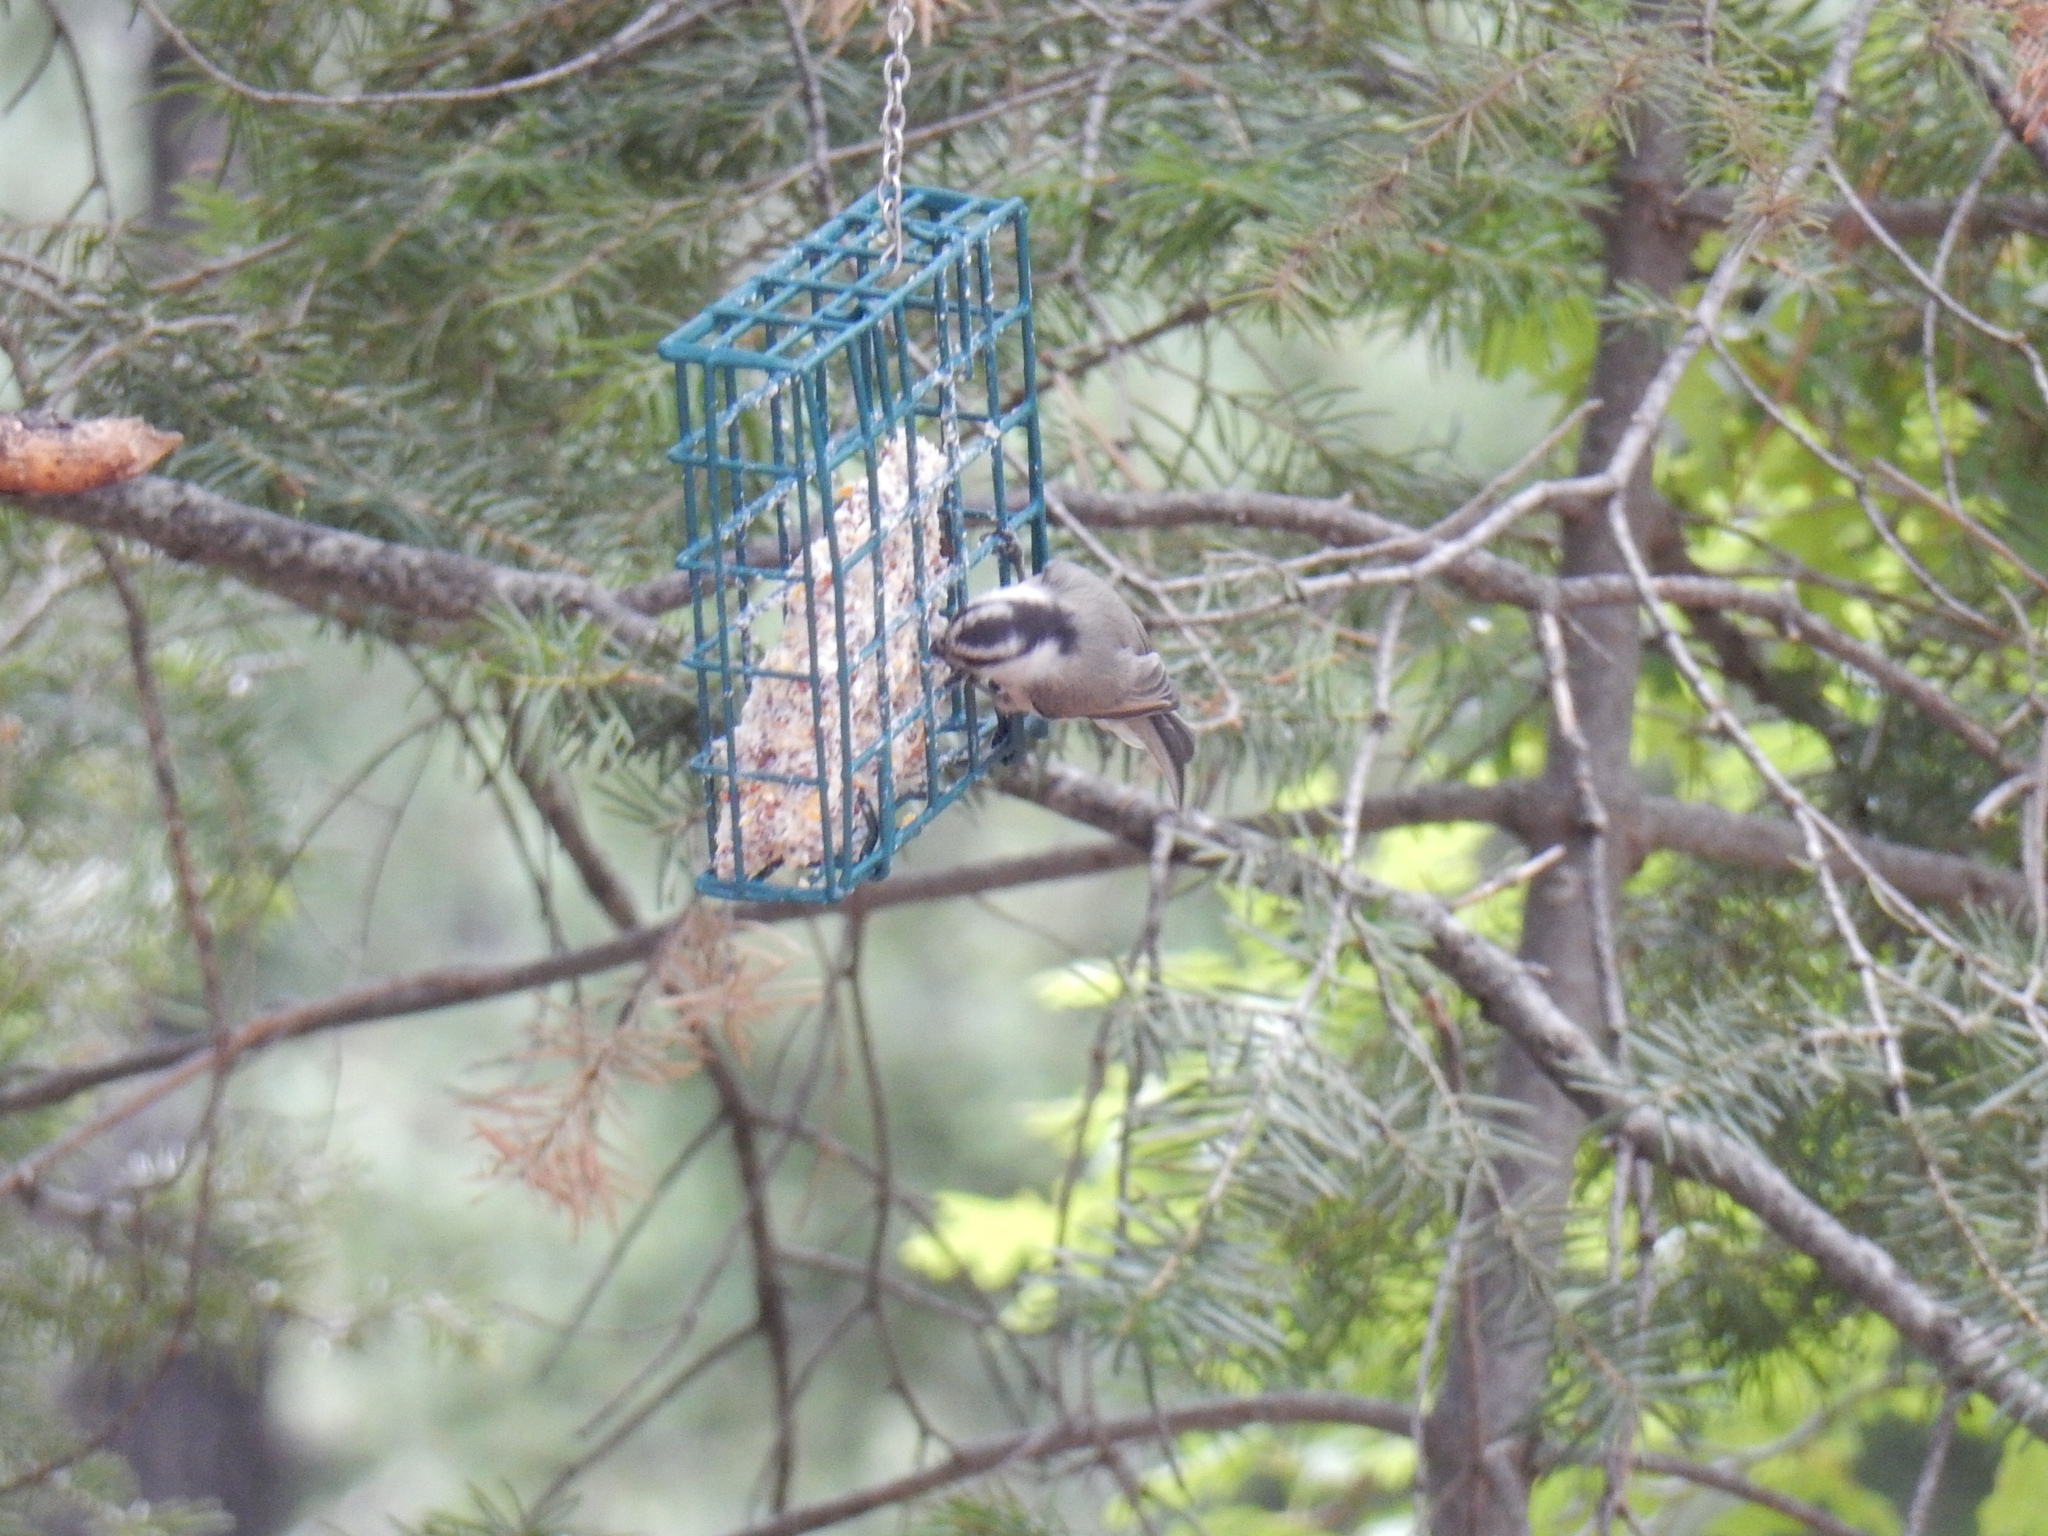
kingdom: Animalia
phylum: Chordata
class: Aves
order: Passeriformes
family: Paridae
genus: Poecile
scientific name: Poecile gambeli
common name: Mountain chickadee
